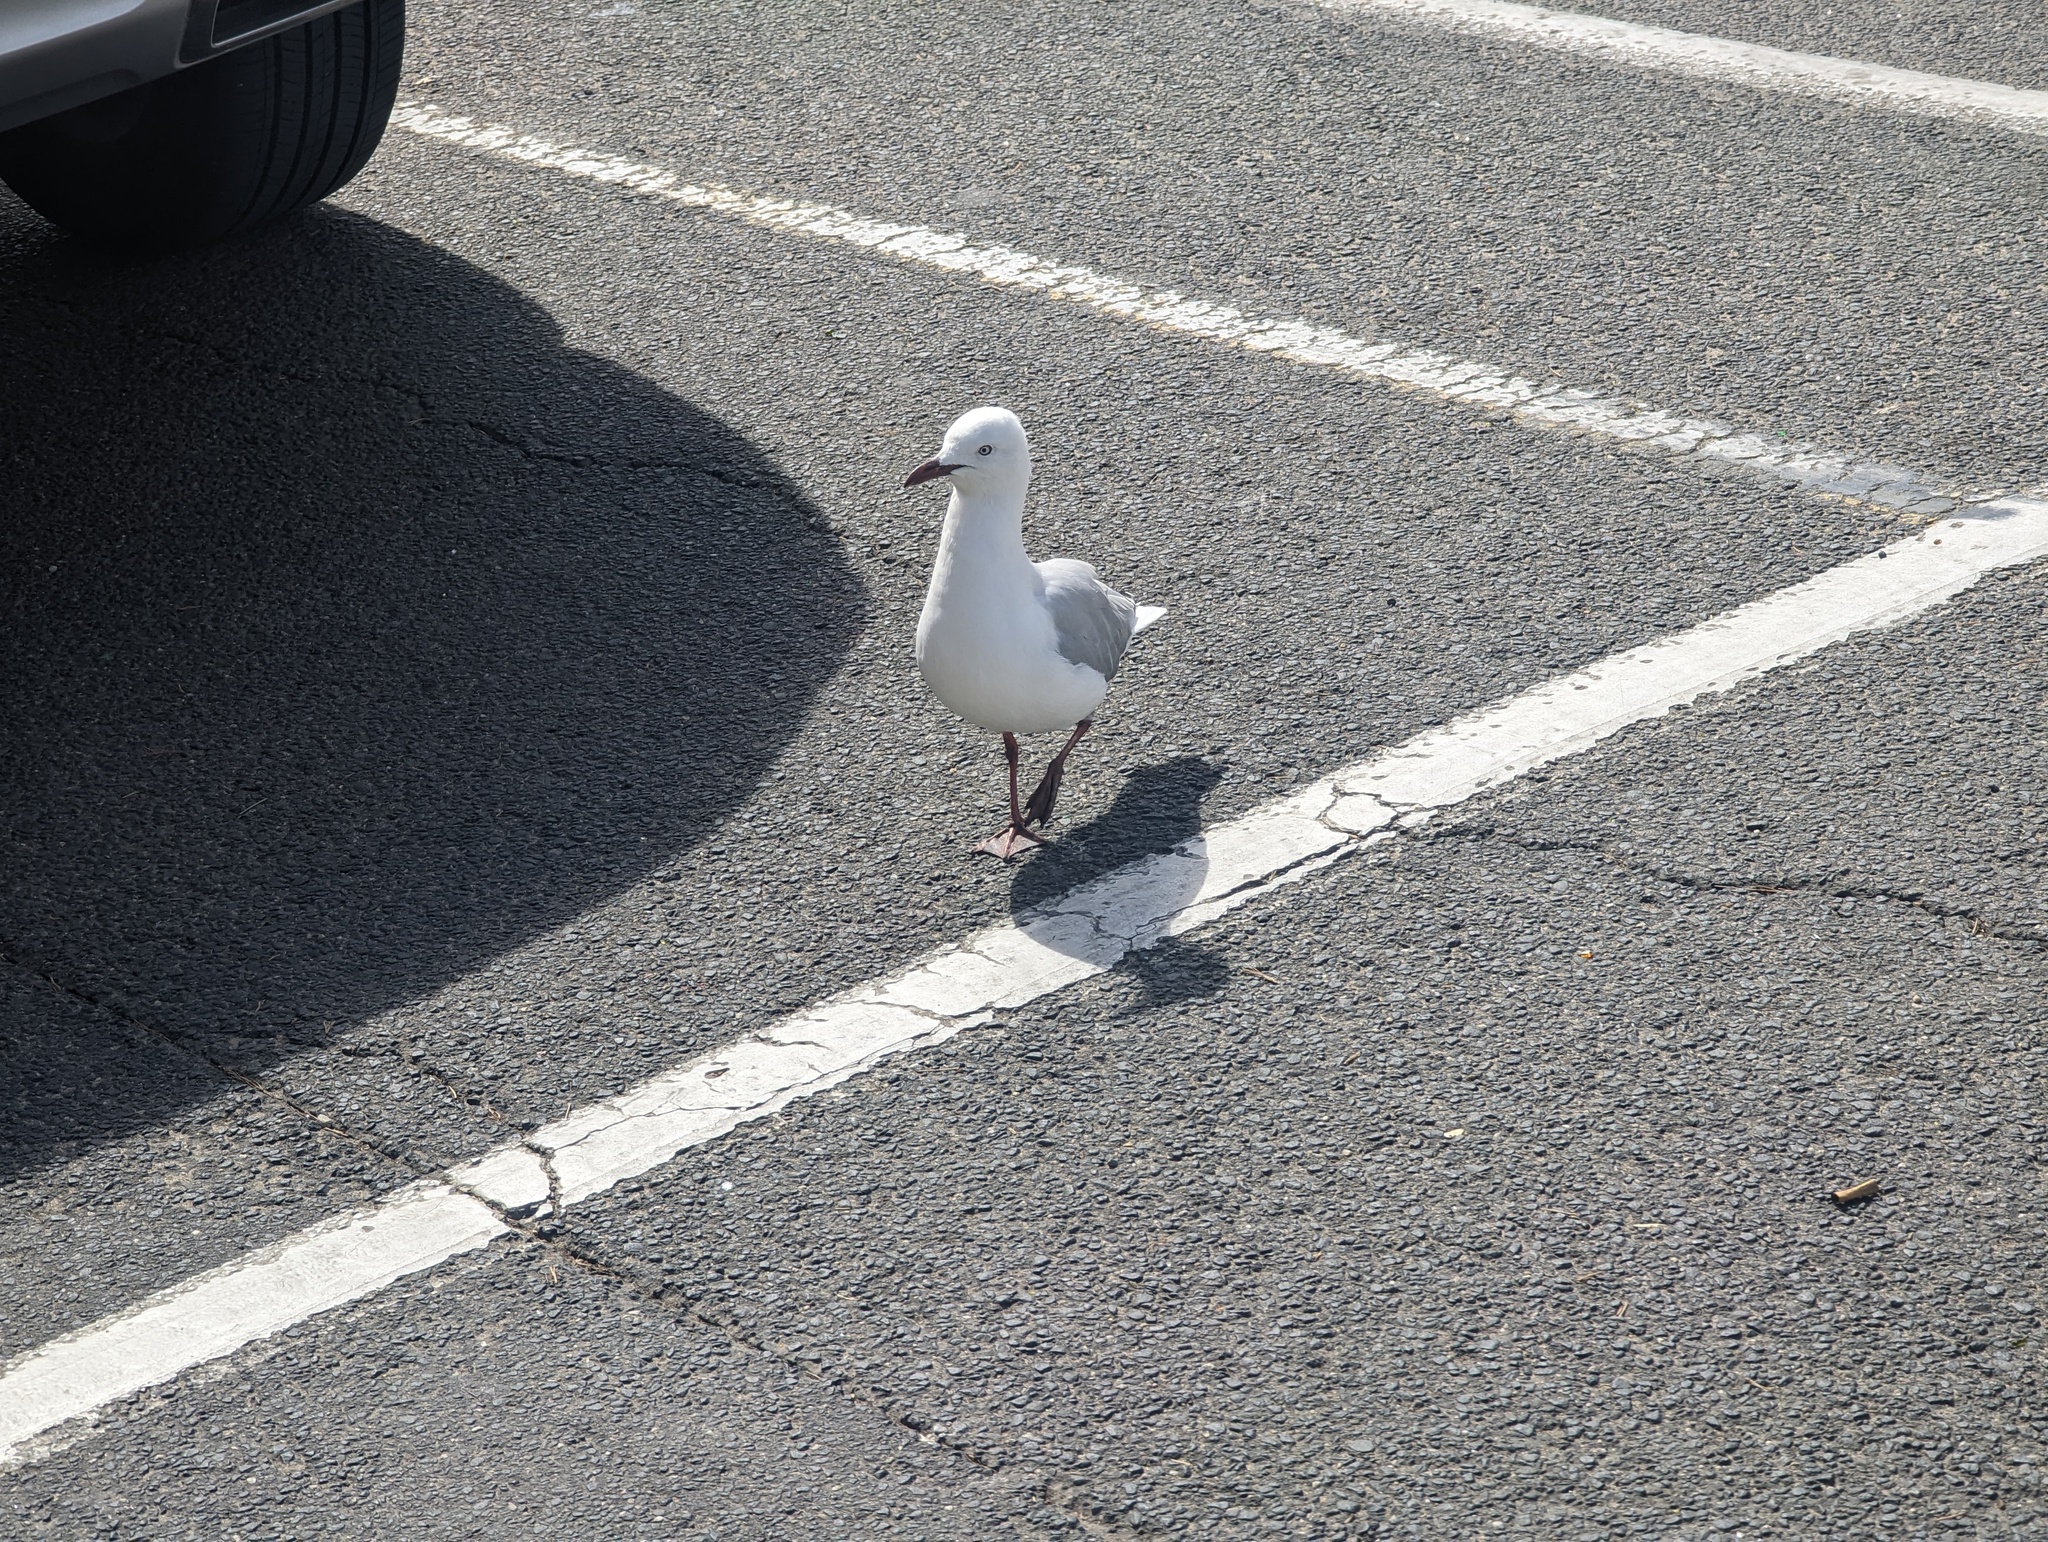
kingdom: Animalia
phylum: Chordata
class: Aves
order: Charadriiformes
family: Laridae
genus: Chroicocephalus
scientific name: Chroicocephalus novaehollandiae
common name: Silver gull
